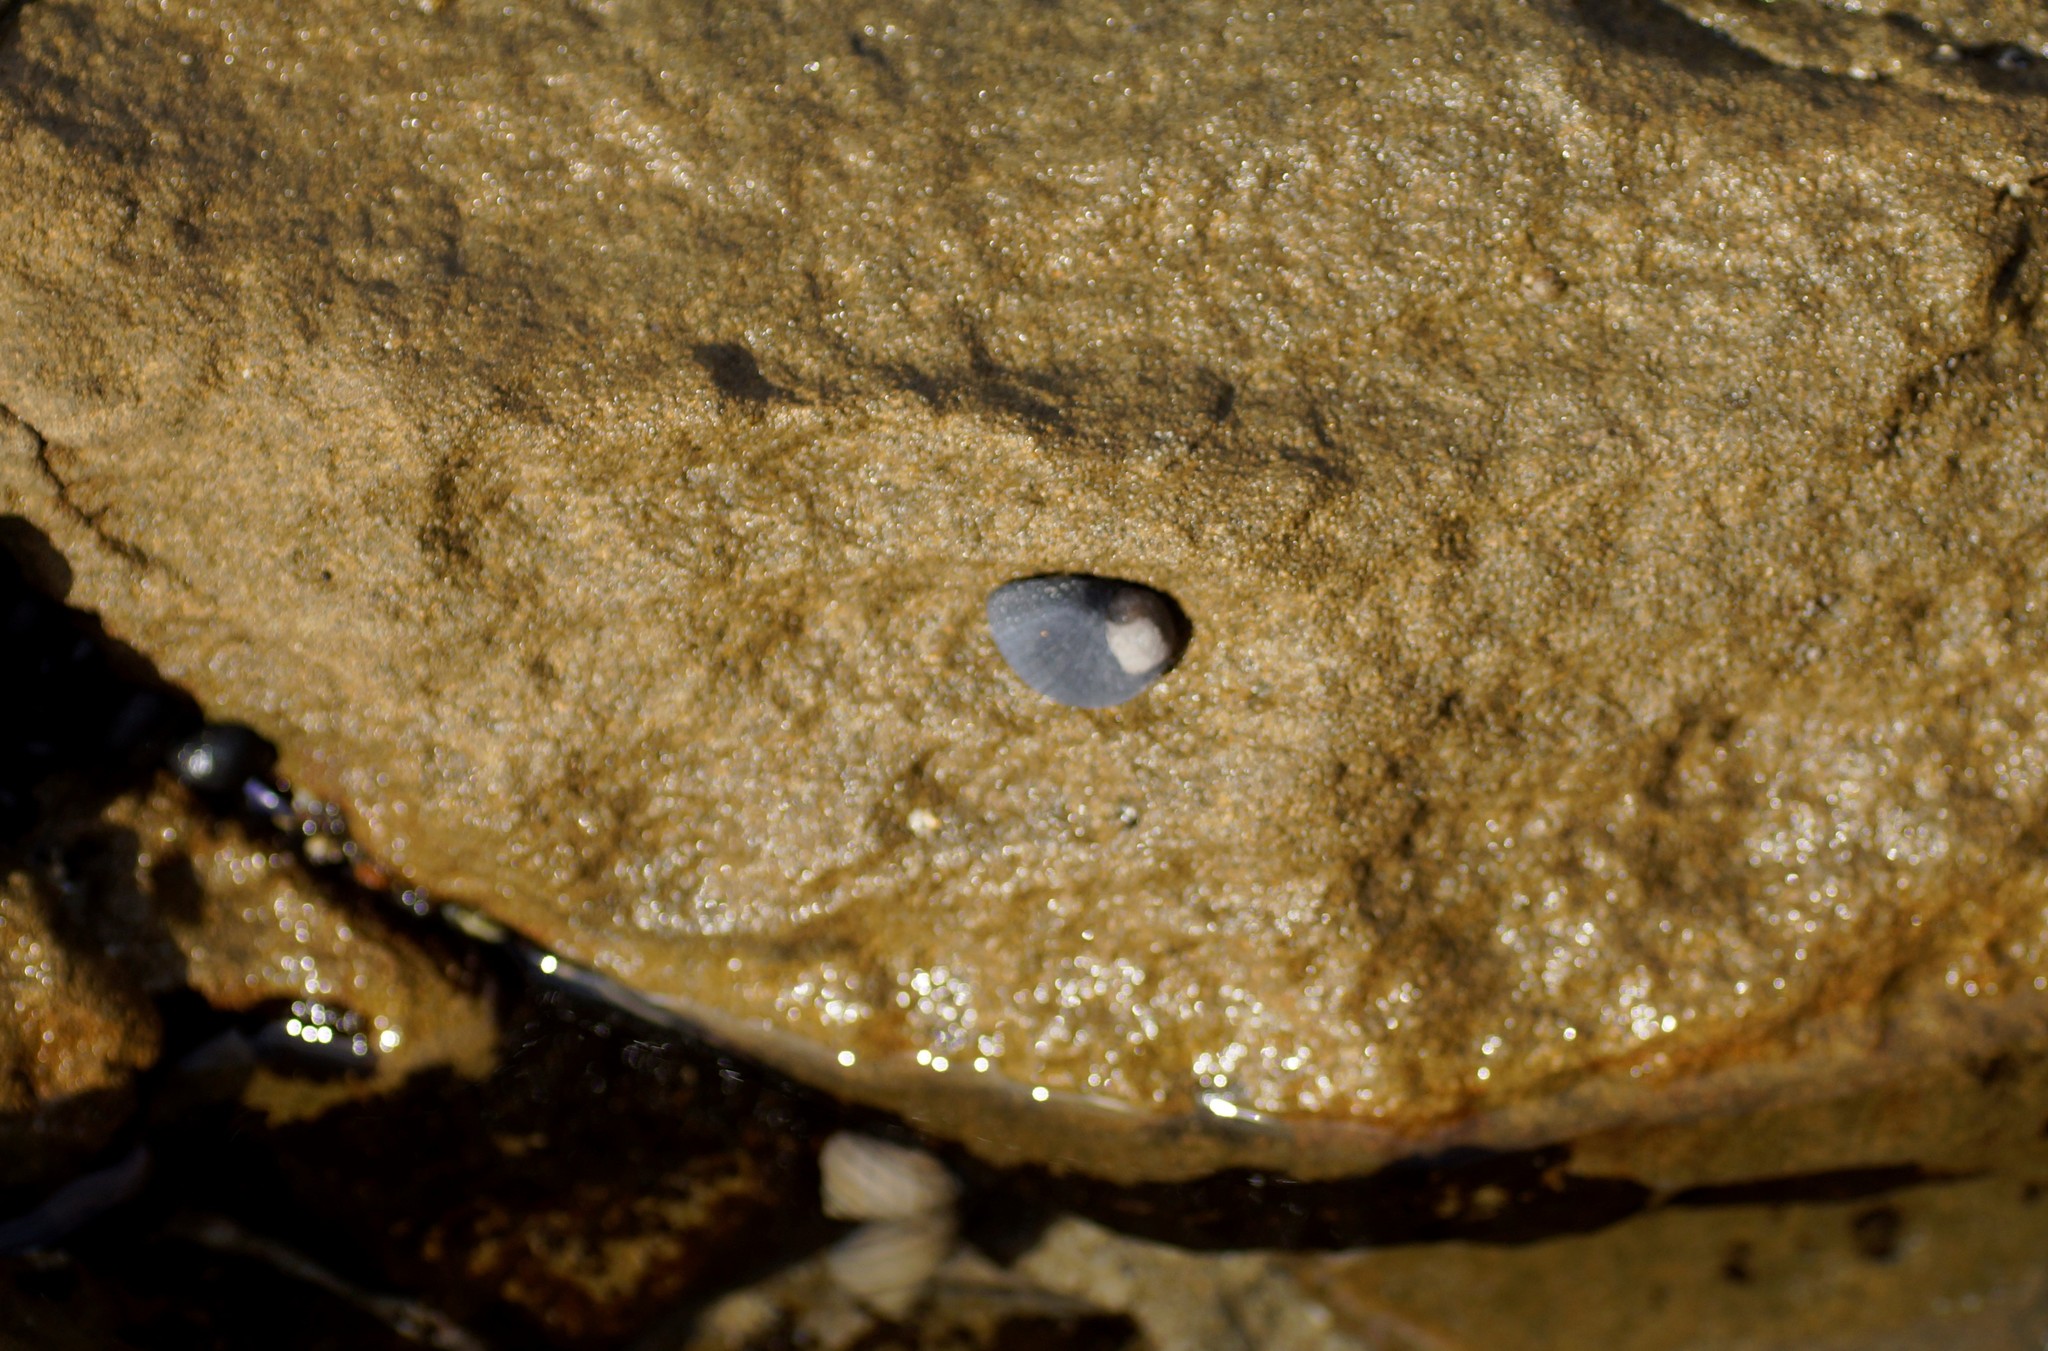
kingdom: Animalia
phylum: Mollusca
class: Gastropoda
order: Cycloneritida
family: Neritidae
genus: Nerita
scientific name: Nerita atramentosa
